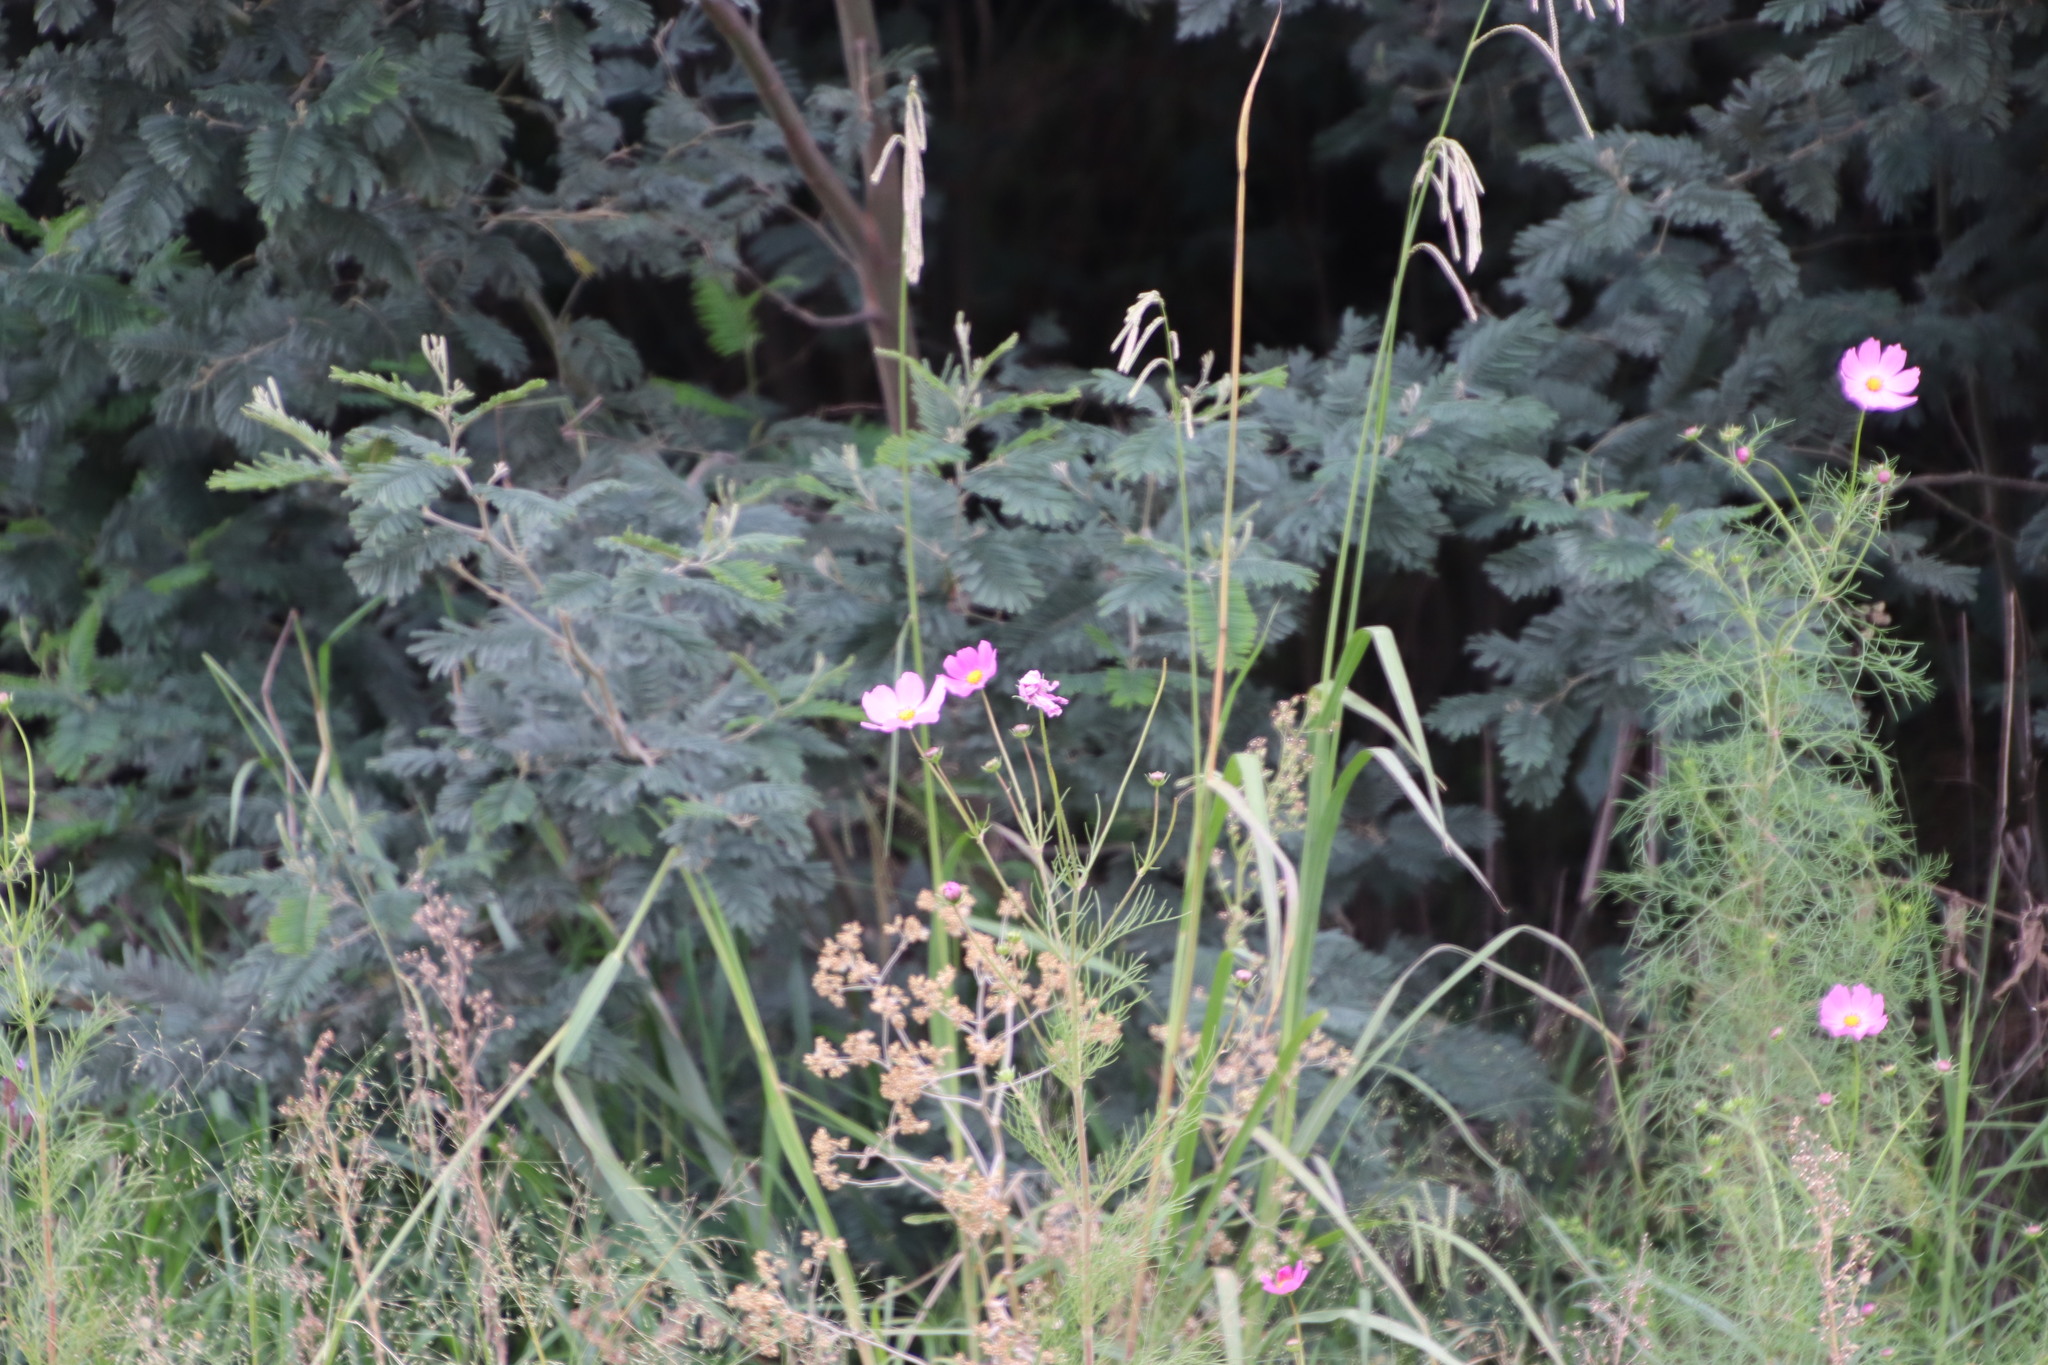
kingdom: Plantae
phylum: Tracheophyta
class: Magnoliopsida
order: Asterales
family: Asteraceae
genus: Cosmos
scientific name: Cosmos bipinnatus
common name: Garden cosmos
